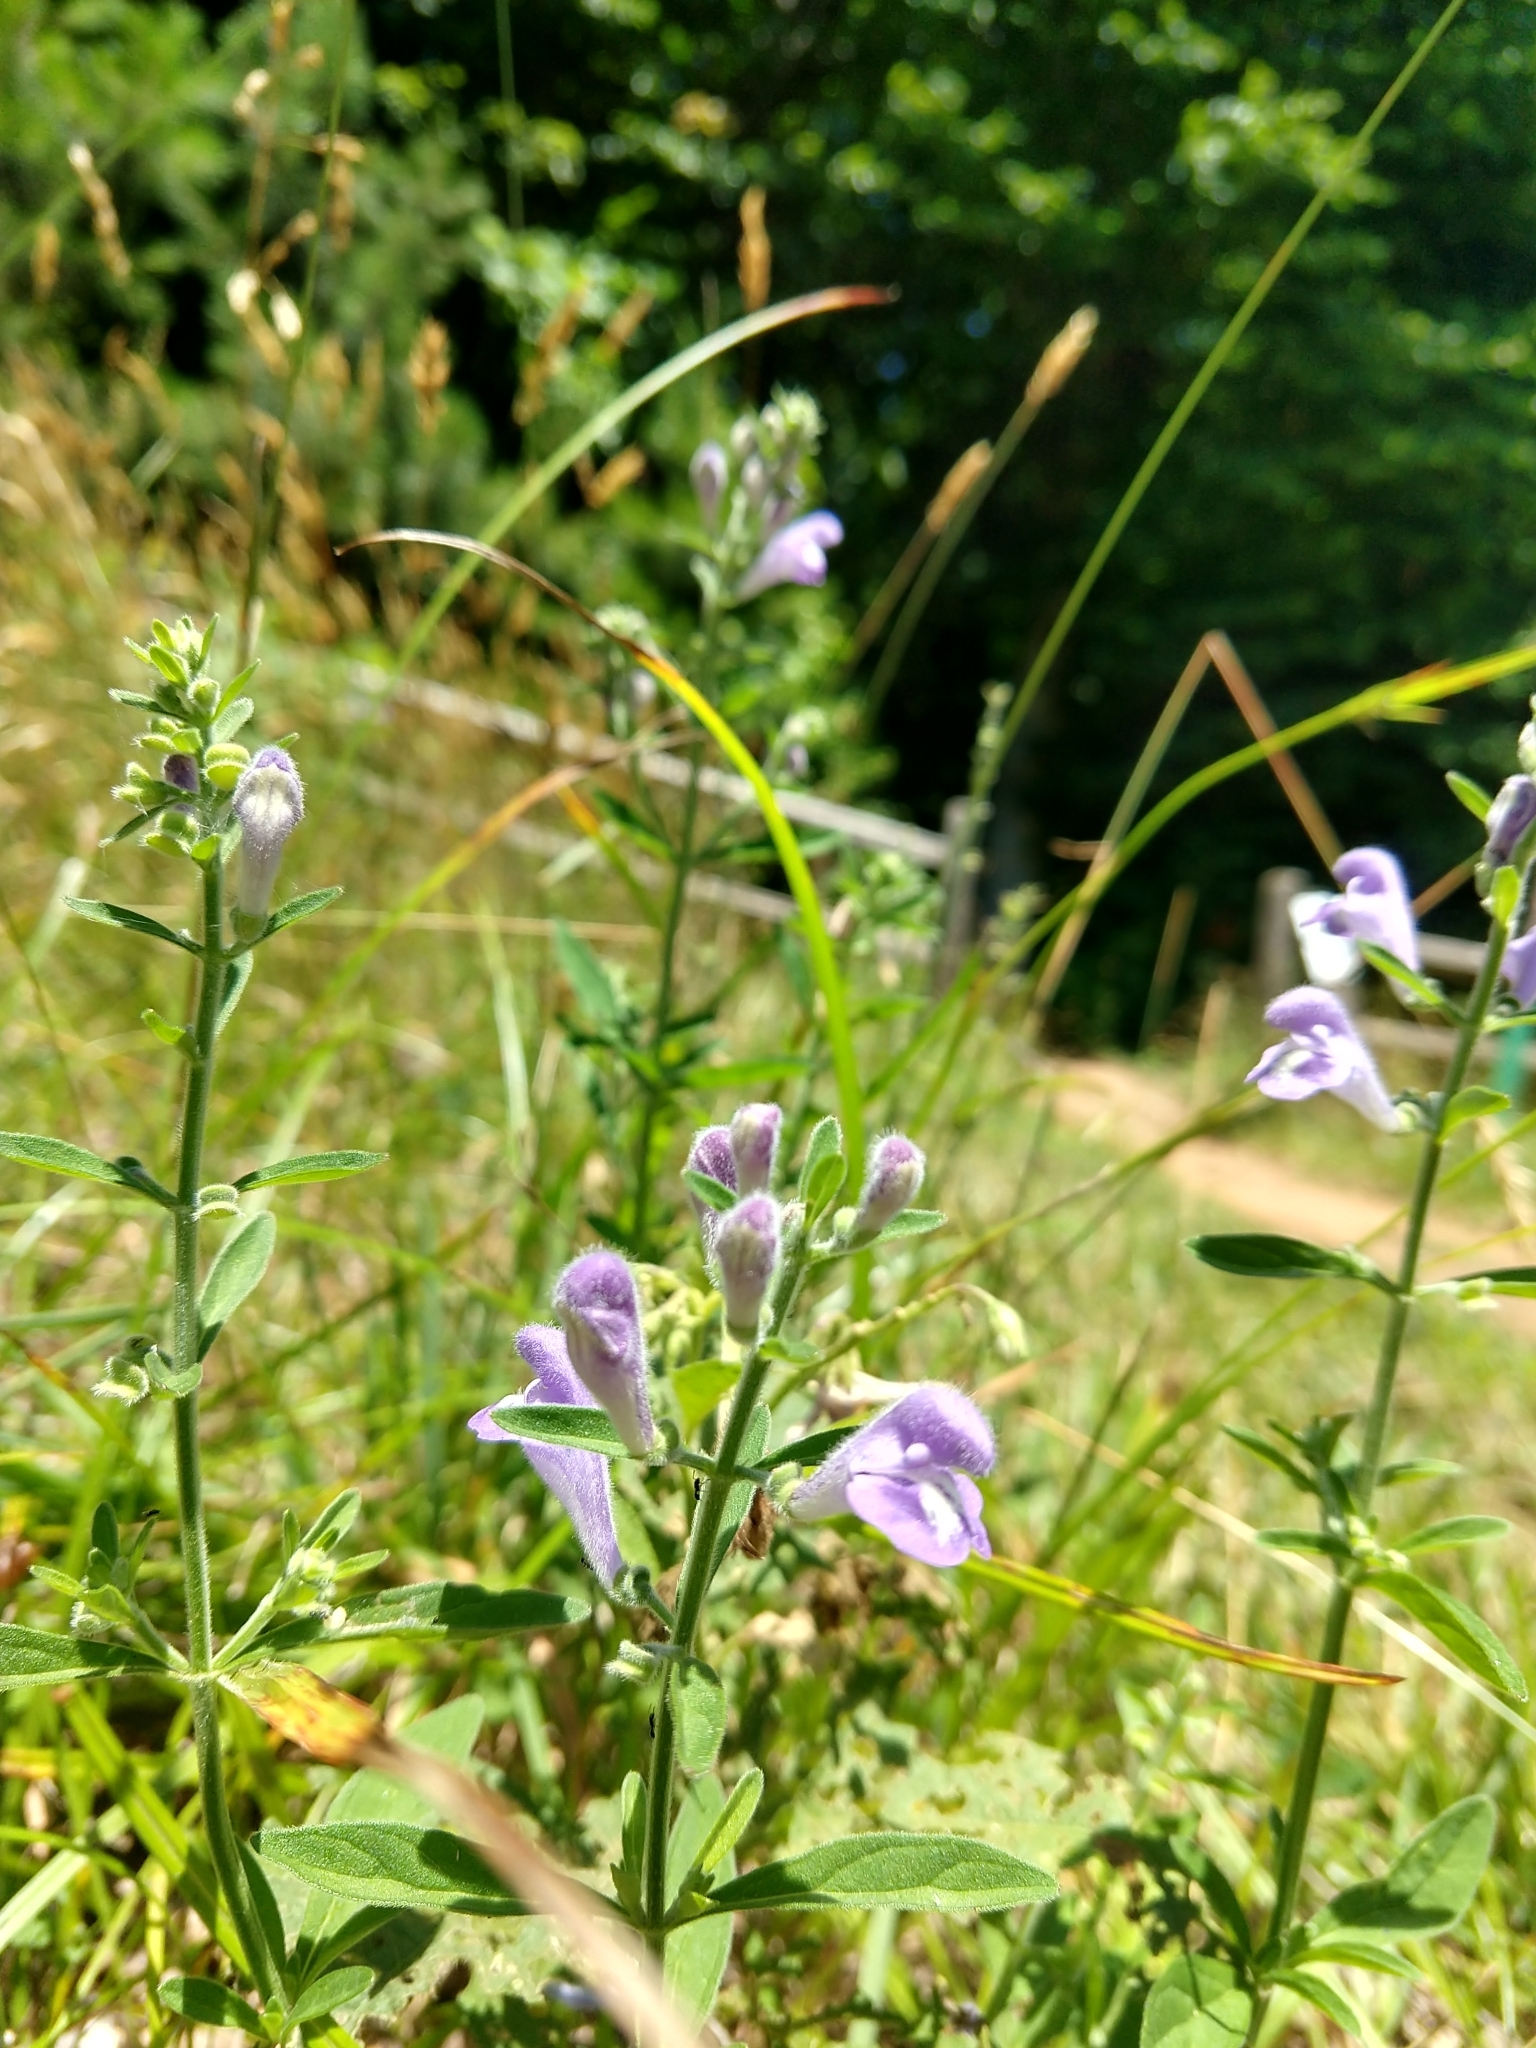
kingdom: Plantae
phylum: Tracheophyta
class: Magnoliopsida
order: Lamiales
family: Lamiaceae
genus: Scutellaria
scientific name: Scutellaria integrifolia
